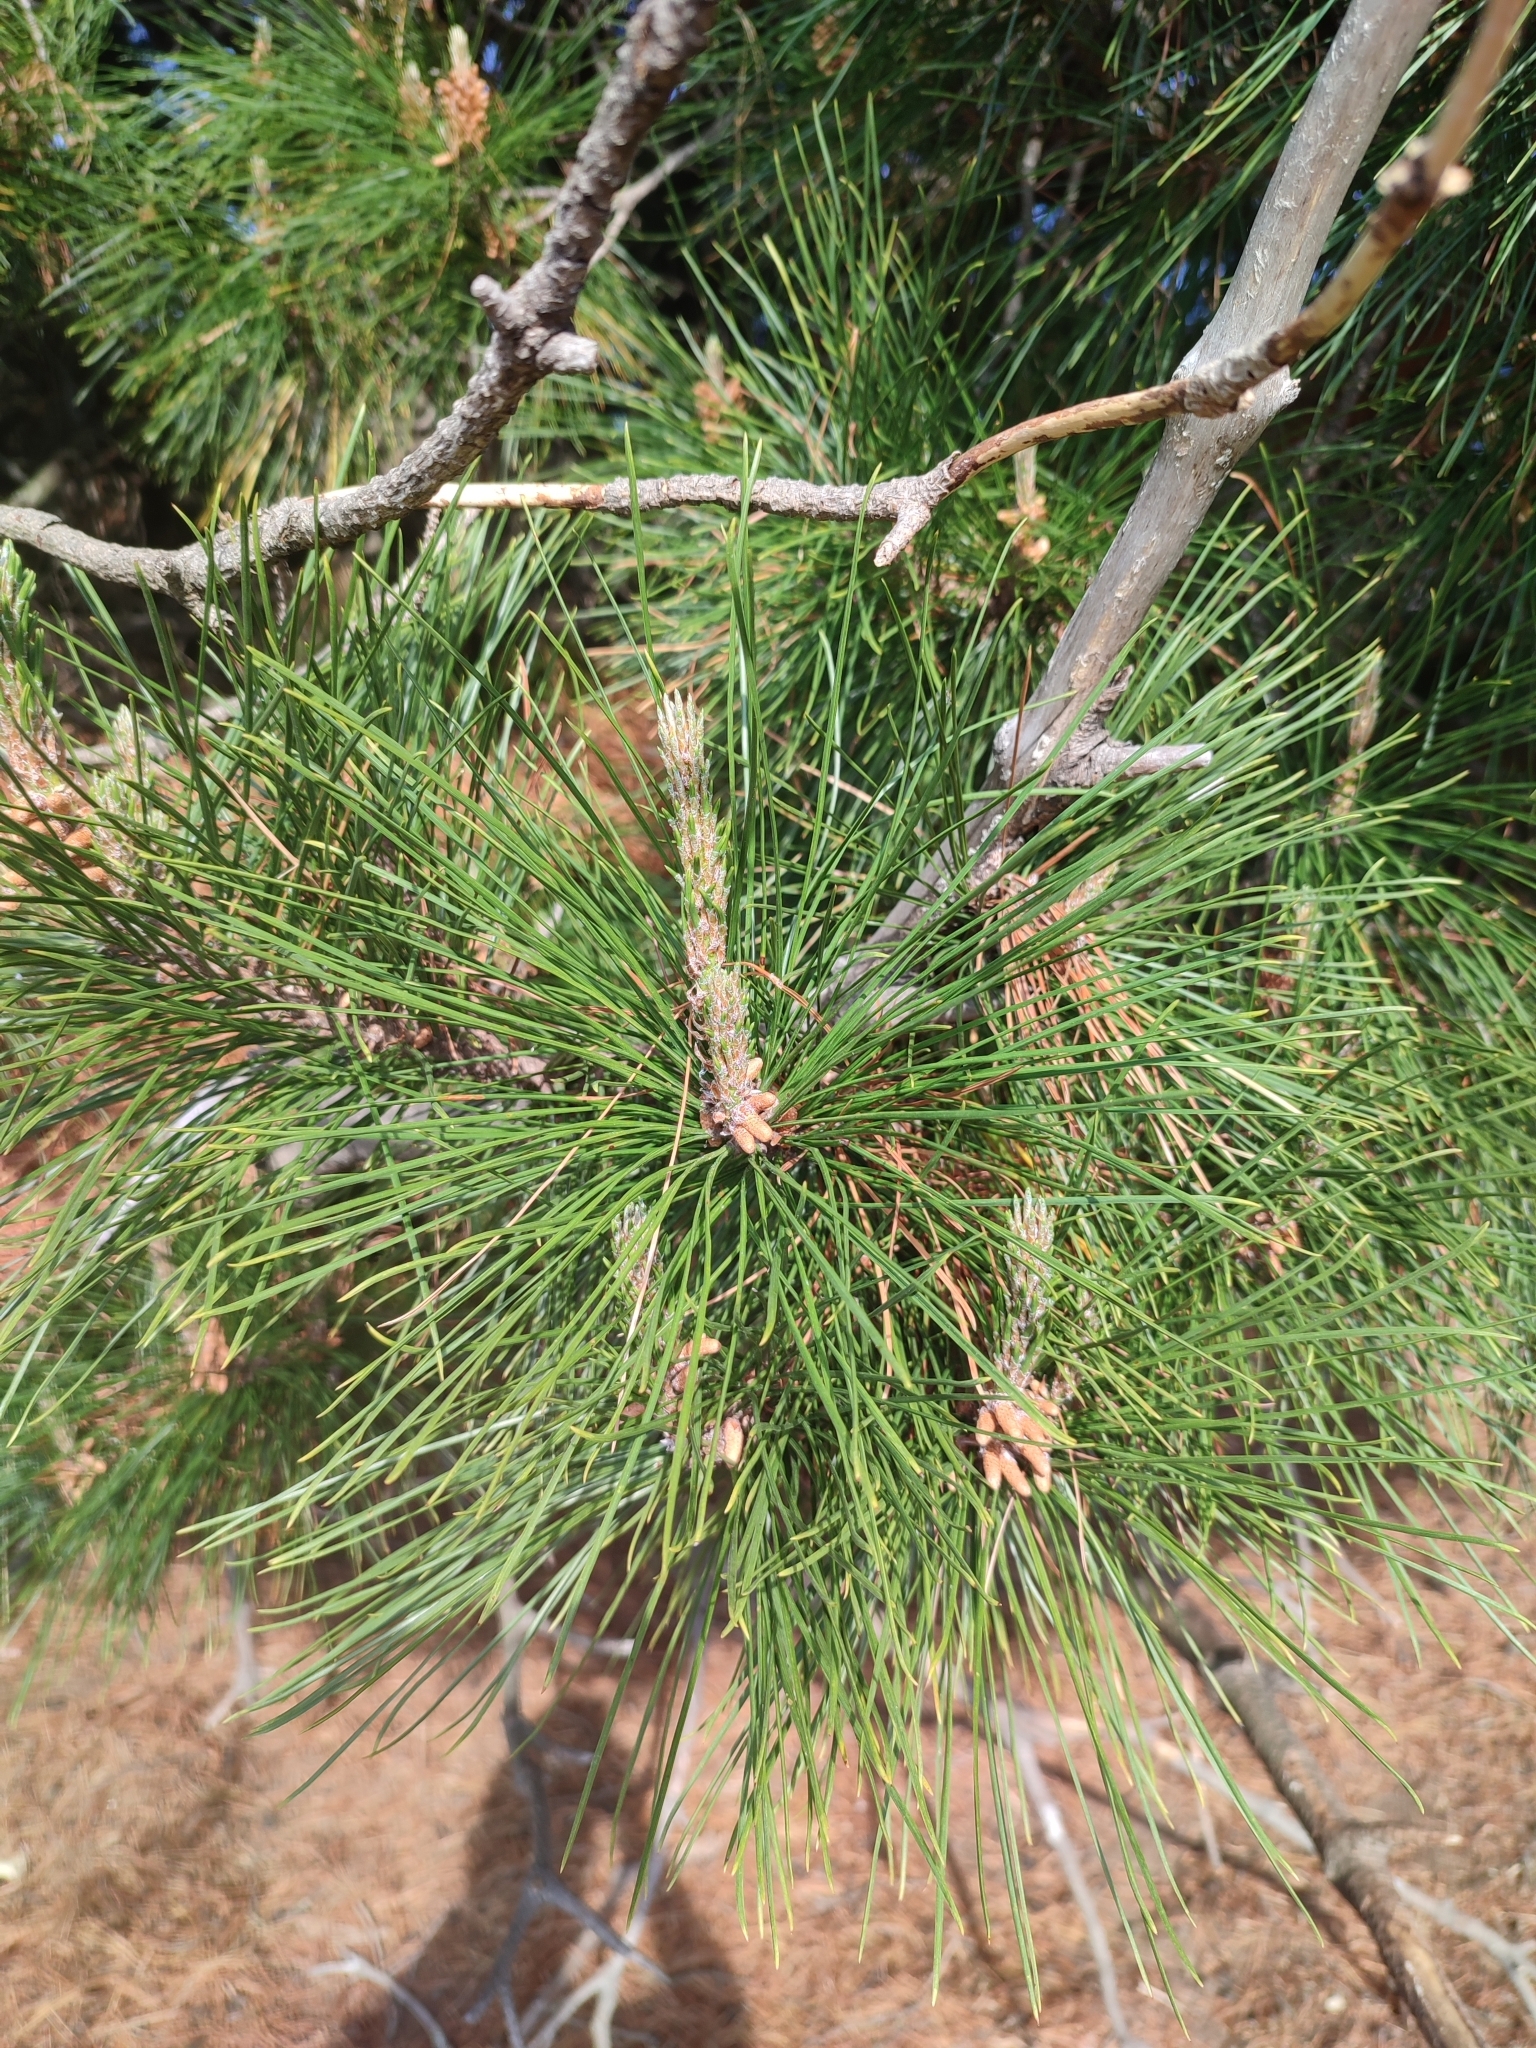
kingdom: Plantae
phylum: Tracheophyta
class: Pinopsida
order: Pinales
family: Pinaceae
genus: Pinus
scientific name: Pinus radiata
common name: Monterey pine
